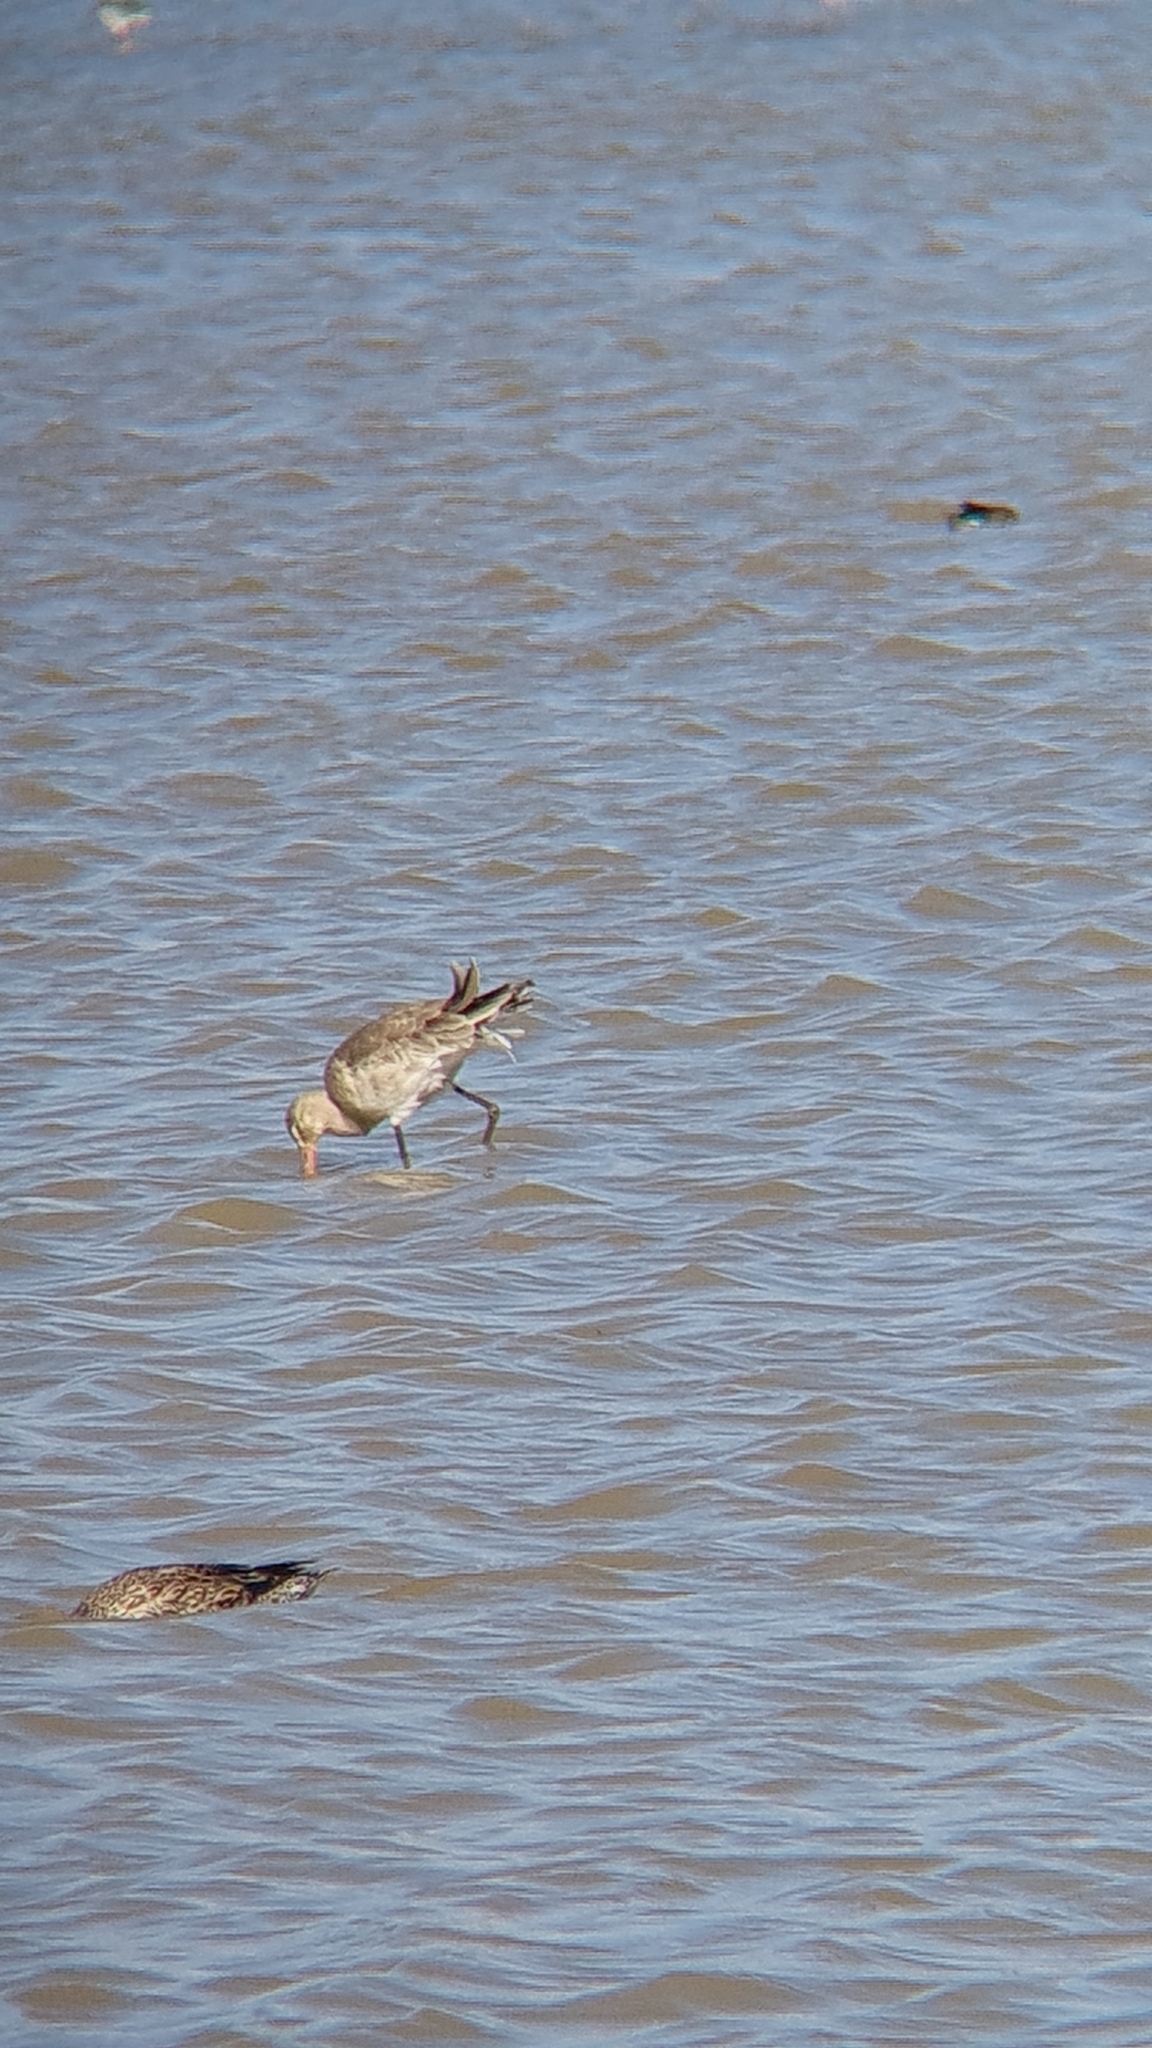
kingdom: Animalia
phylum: Chordata
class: Aves
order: Charadriiformes
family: Scolopacidae
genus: Limosa
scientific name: Limosa limosa
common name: Black-tailed godwit
